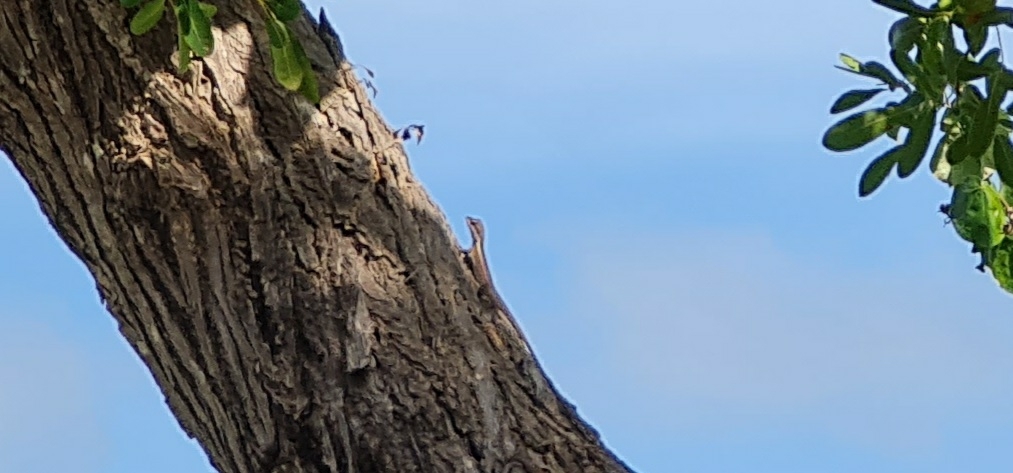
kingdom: Animalia
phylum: Chordata
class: Squamata
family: Agamidae
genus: Tropicagama
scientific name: Tropicagama temporalis
